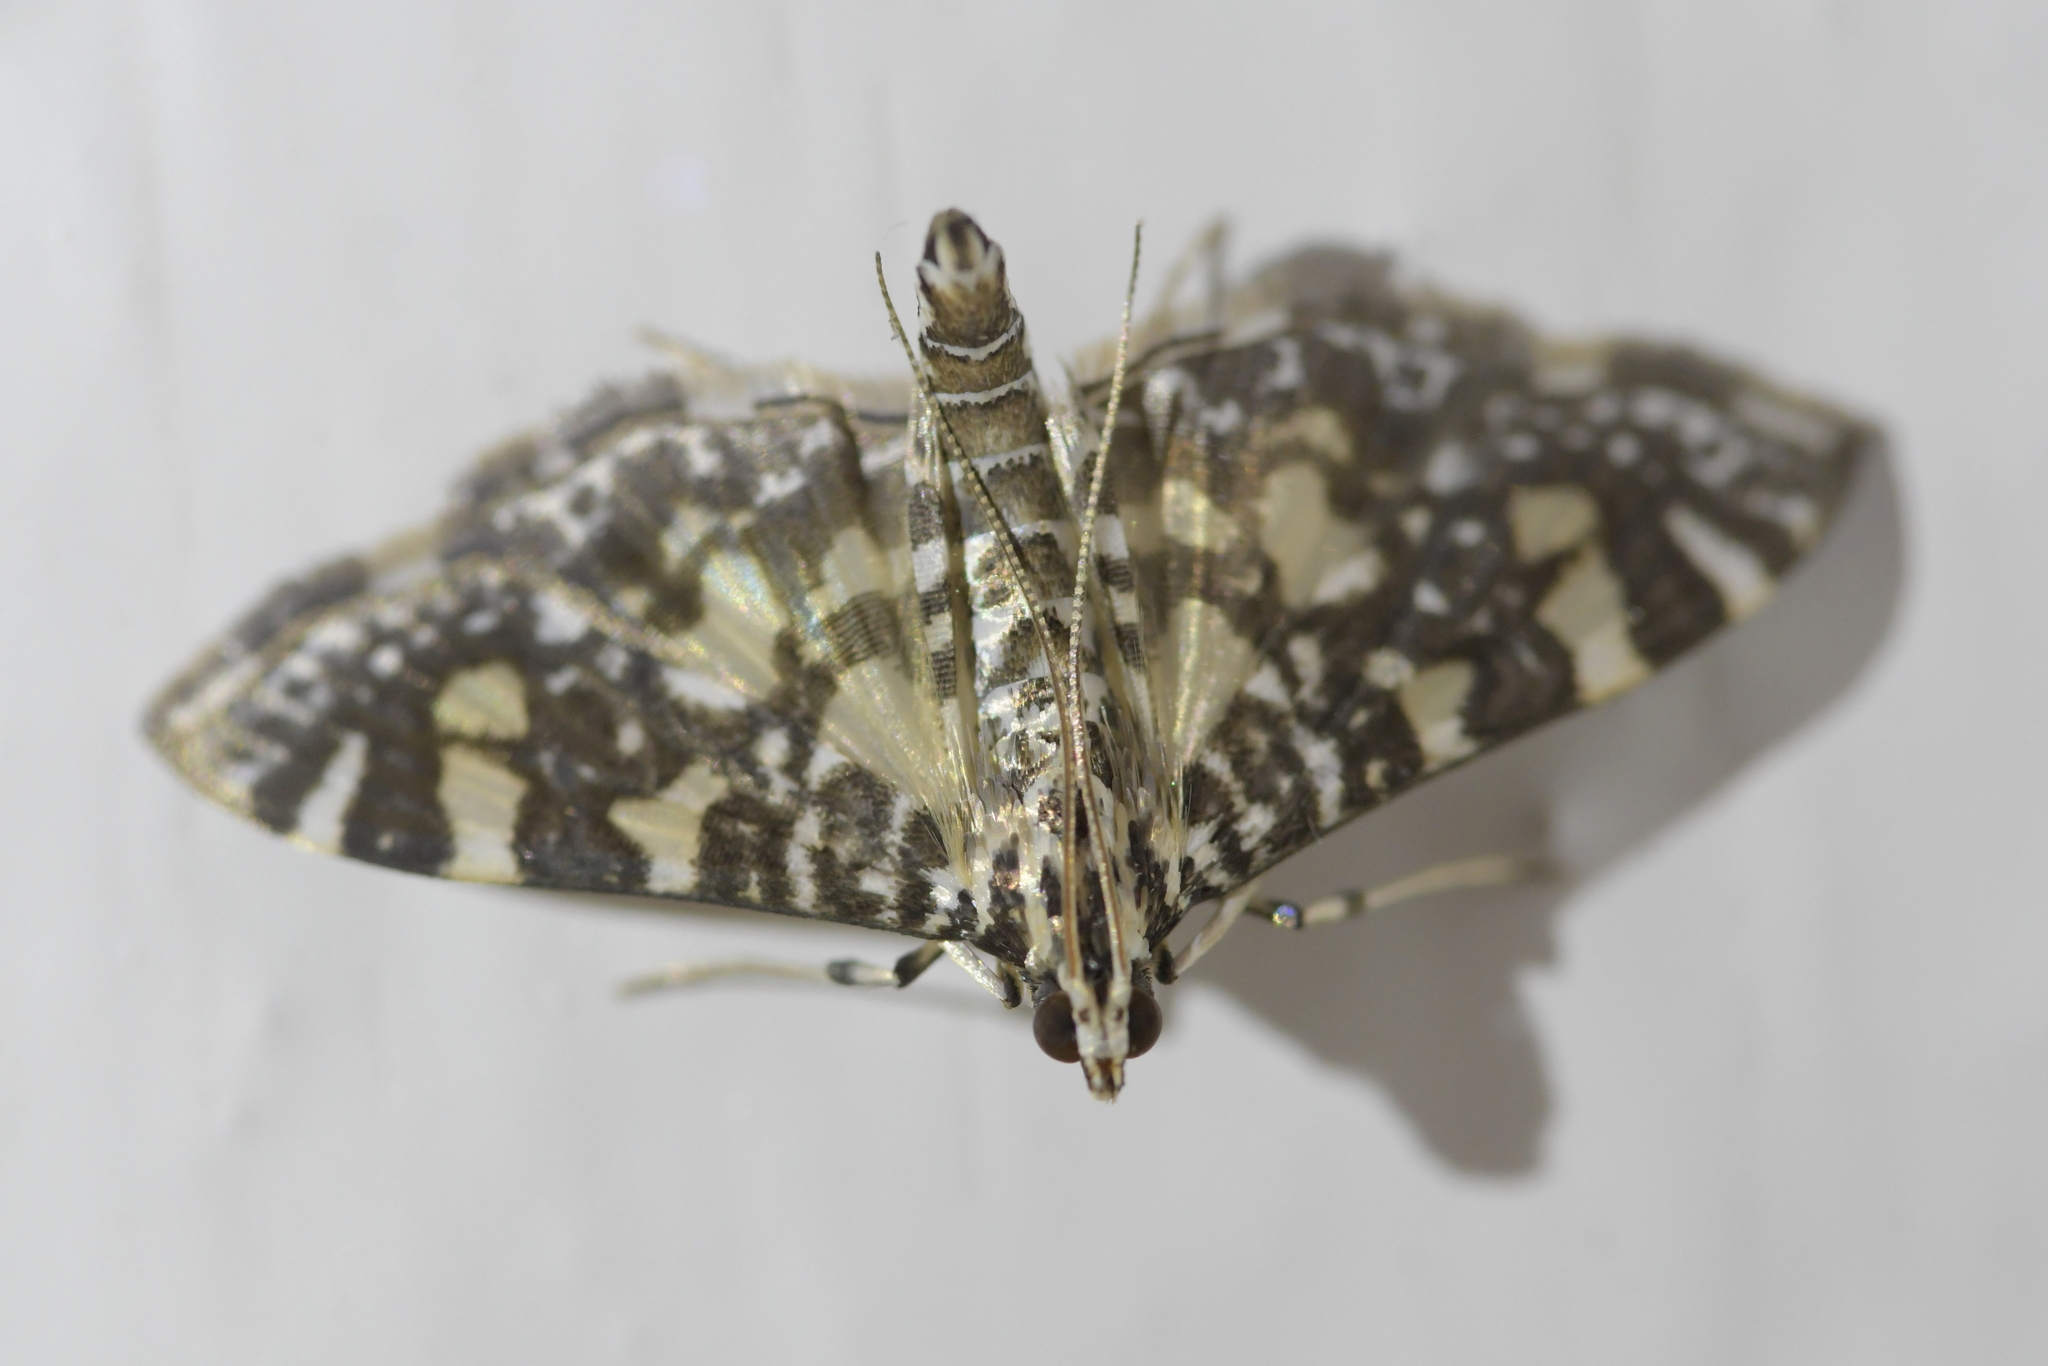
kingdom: Animalia
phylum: Arthropoda
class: Insecta
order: Lepidoptera
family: Crambidae
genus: Glyphodes
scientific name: Glyphodes onychinalis
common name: Swan plant moth
